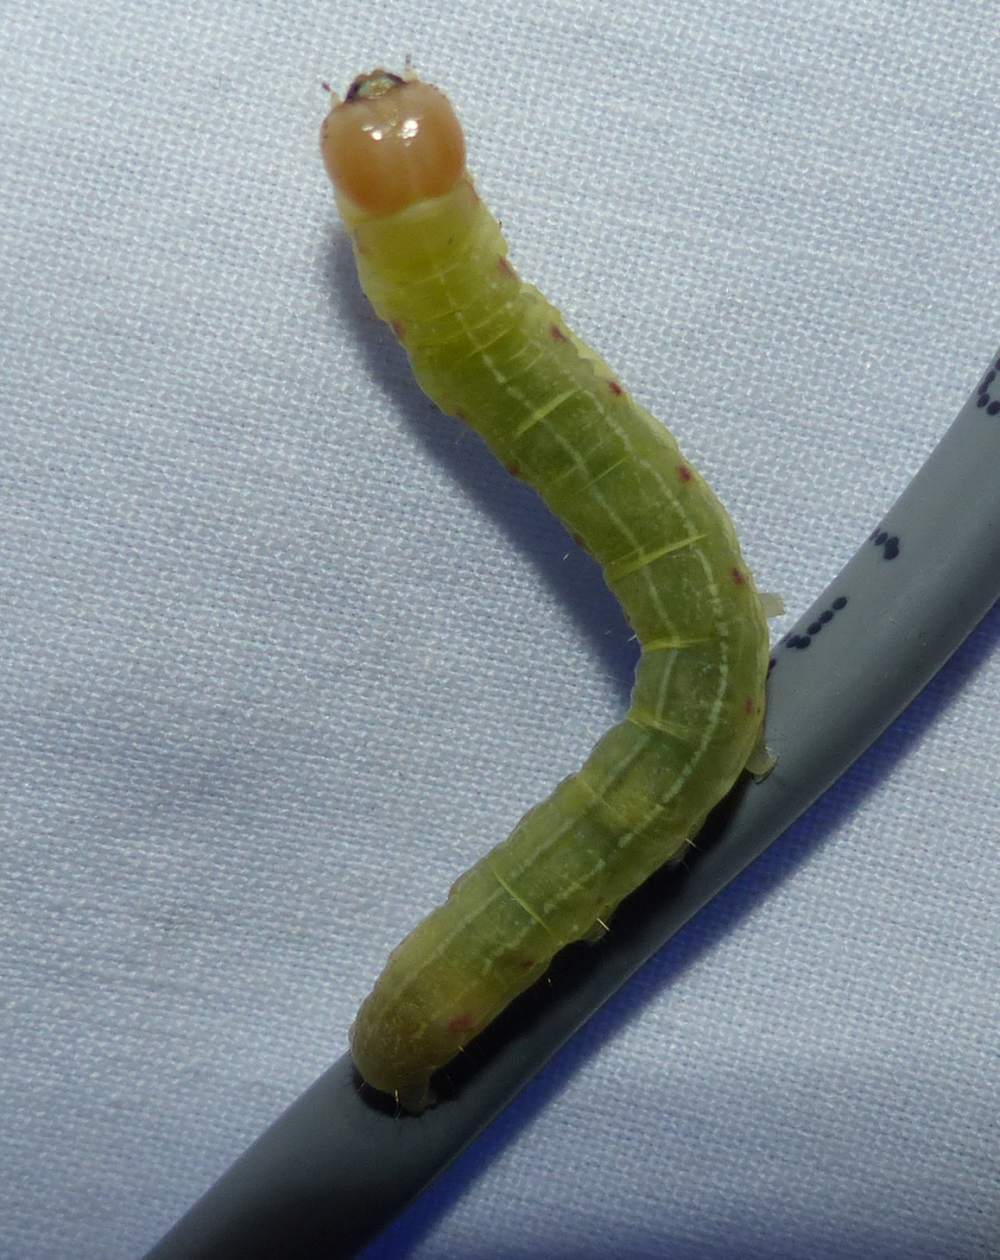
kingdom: Animalia
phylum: Arthropoda
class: Insecta
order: Lepidoptera
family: Noctuidae
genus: Achatia
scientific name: Achatia confusa
